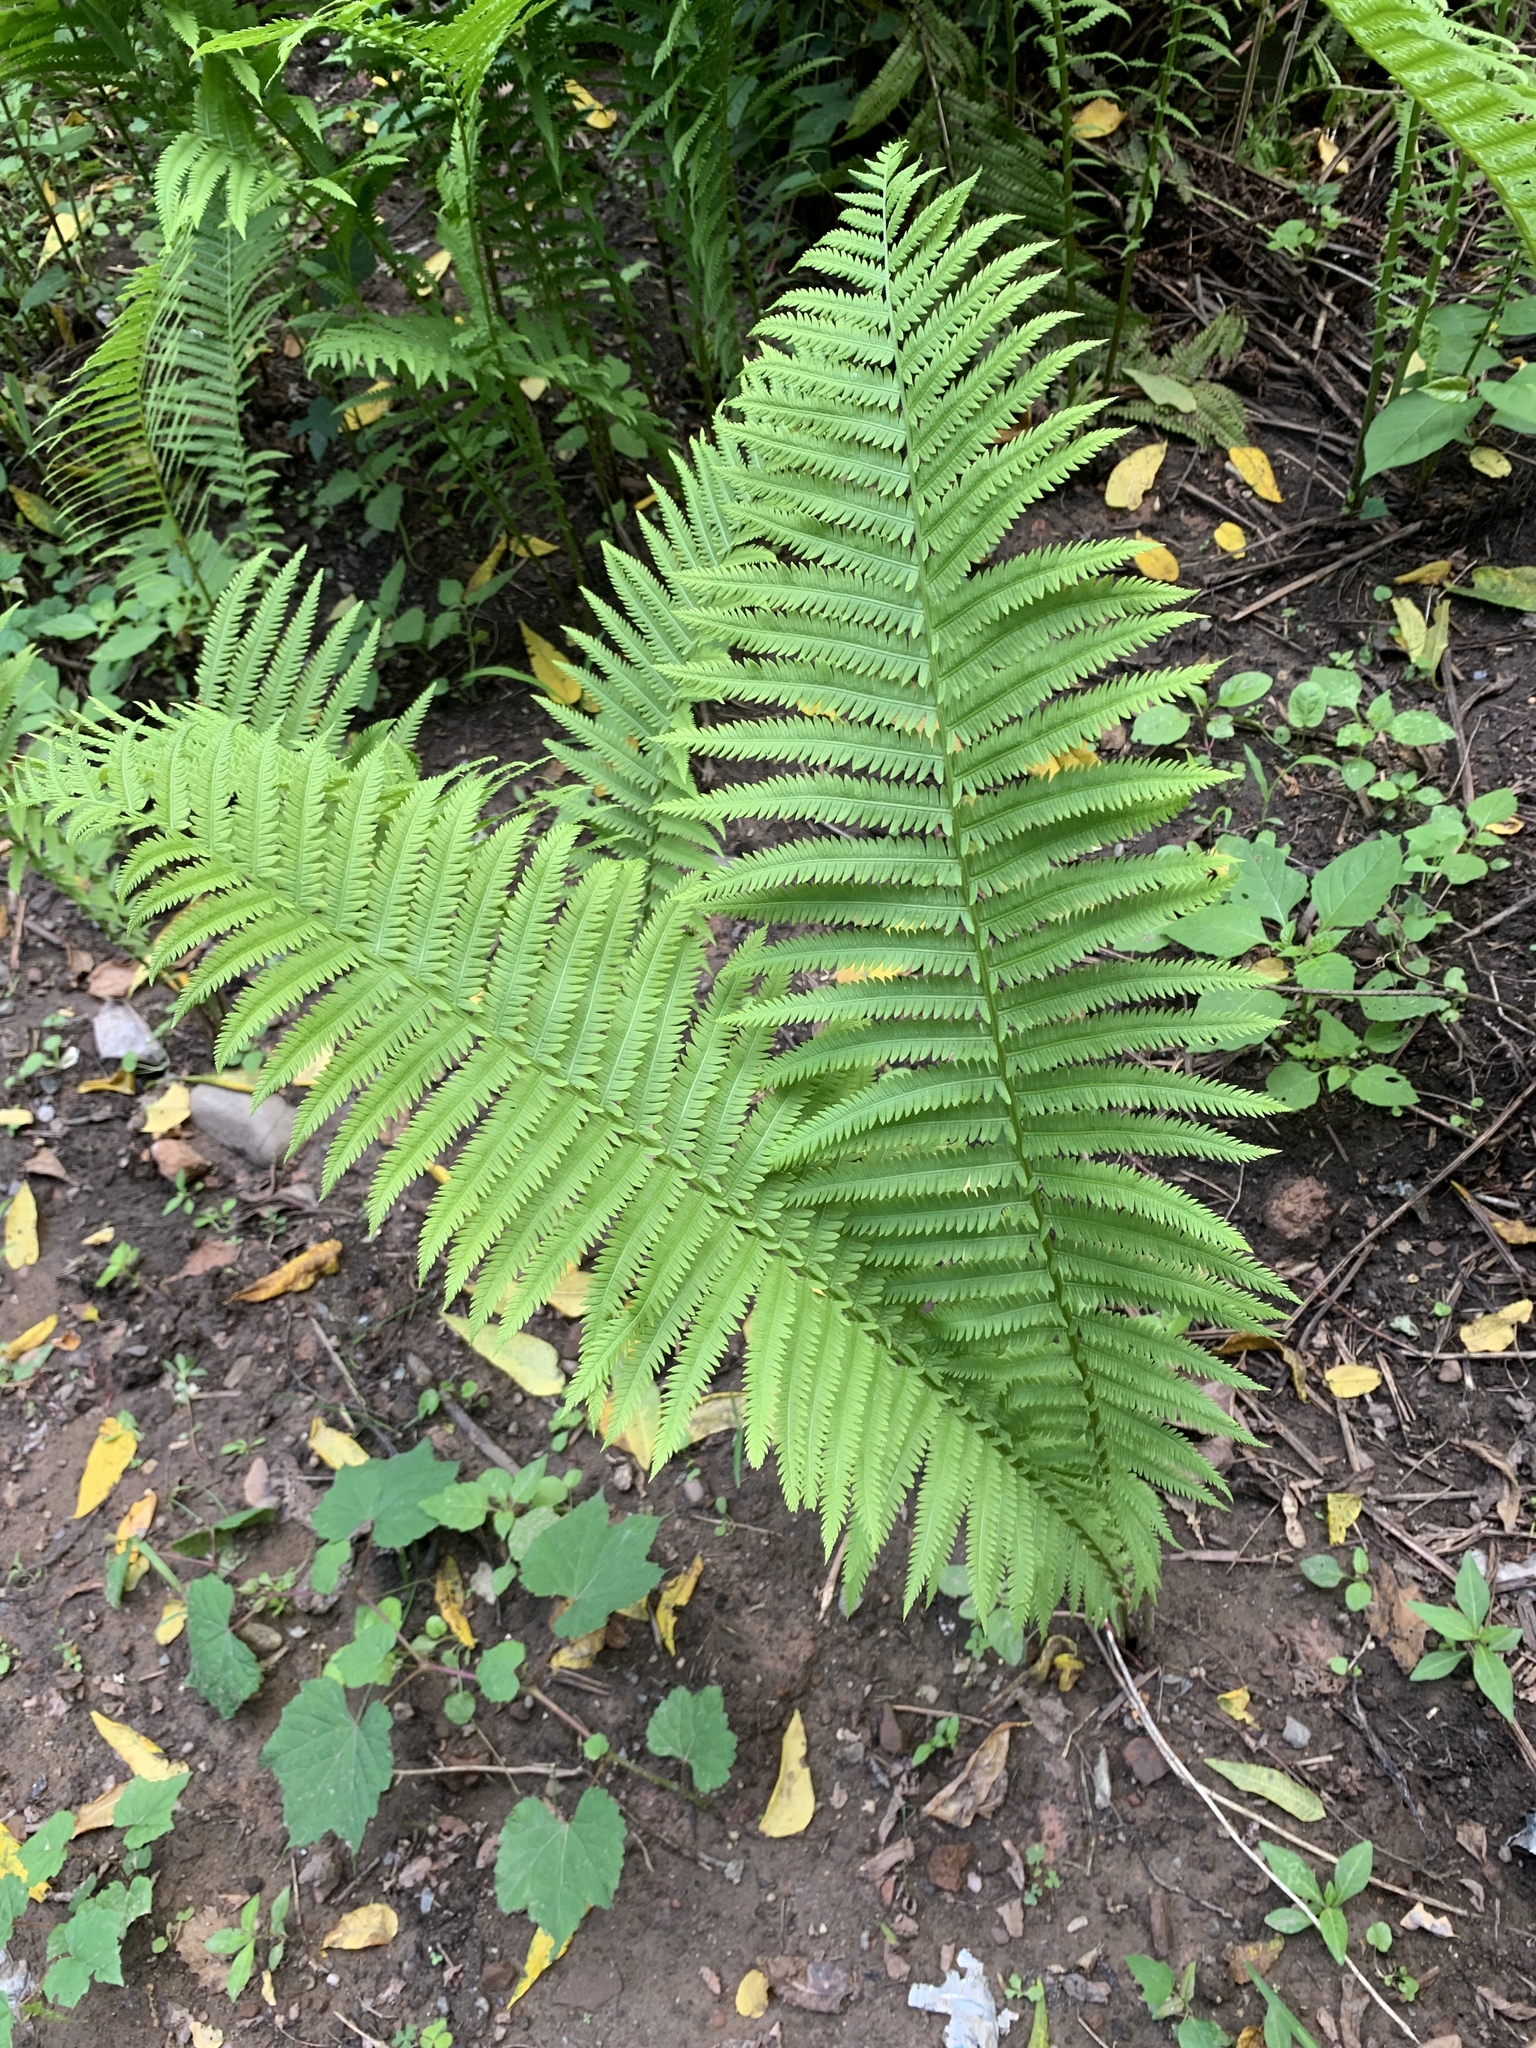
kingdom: Plantae
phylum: Tracheophyta
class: Polypodiopsida
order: Polypodiales
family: Onocleaceae
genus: Matteuccia
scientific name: Matteuccia struthiopteris
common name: Ostrich fern
